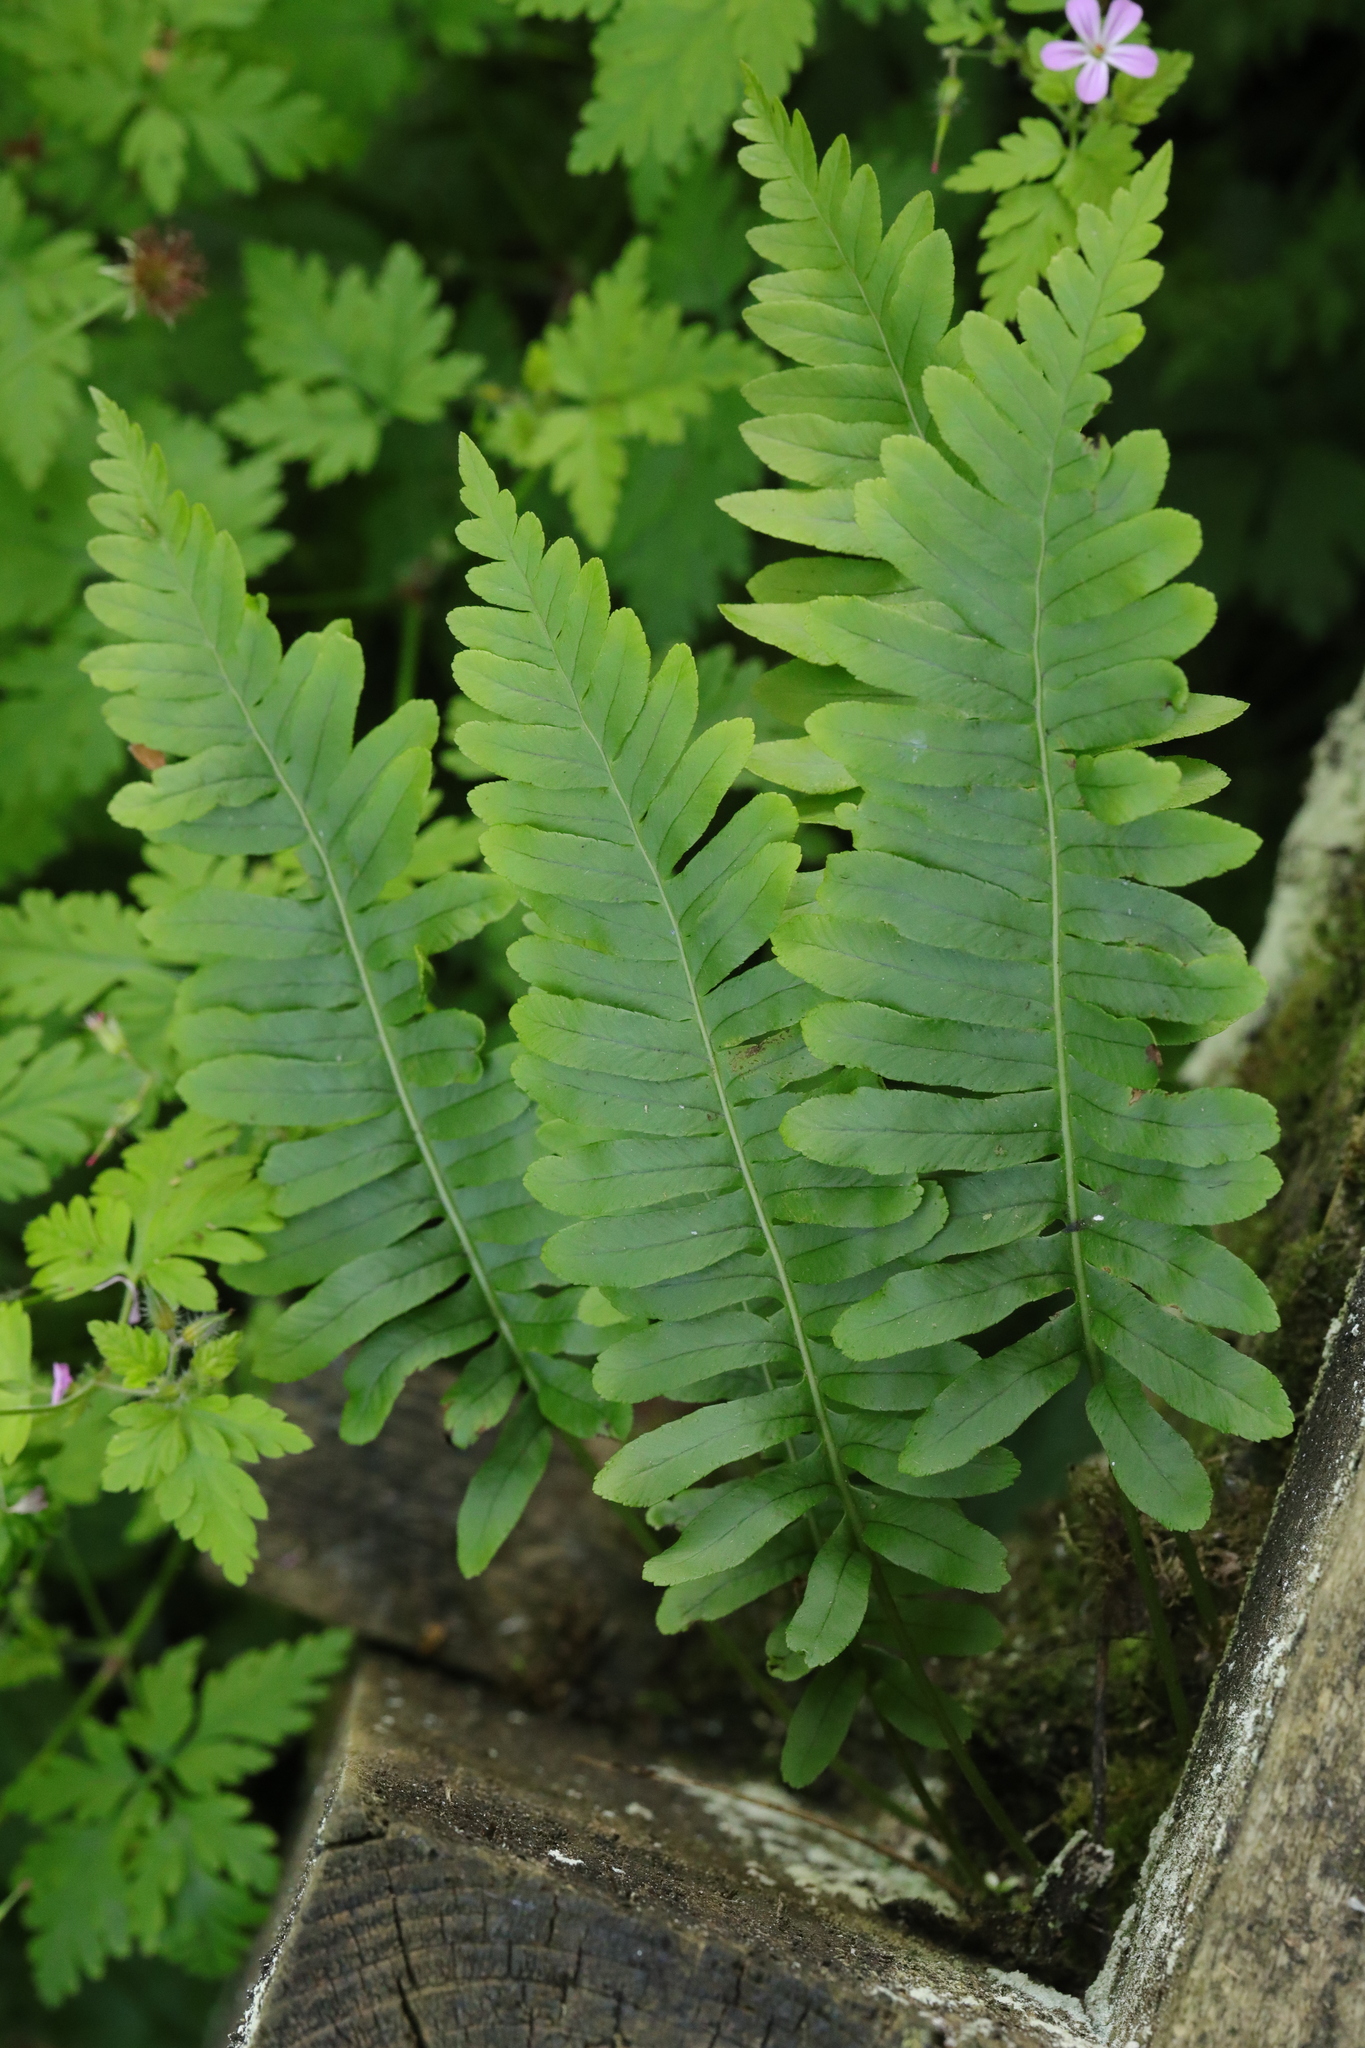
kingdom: Plantae
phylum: Tracheophyta
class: Polypodiopsida
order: Polypodiales
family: Polypodiaceae
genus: Polypodium
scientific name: Polypodium
